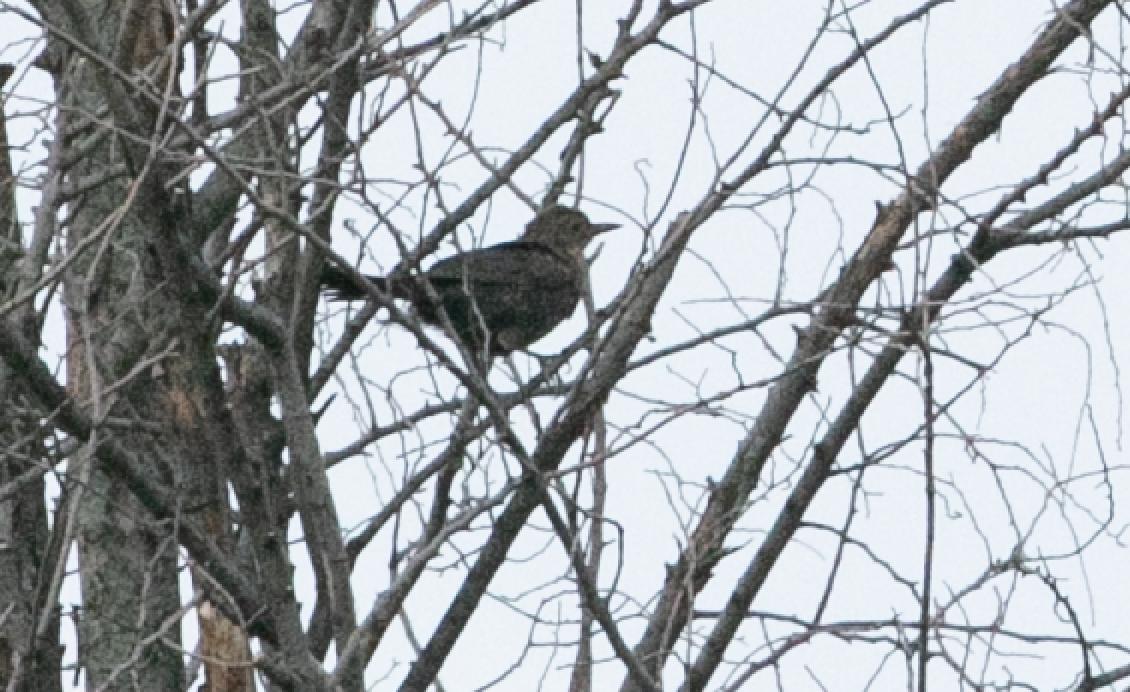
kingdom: Animalia
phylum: Chordata
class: Aves
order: Passeriformes
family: Turdidae
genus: Turdus
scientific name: Turdus merula
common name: Common blackbird
